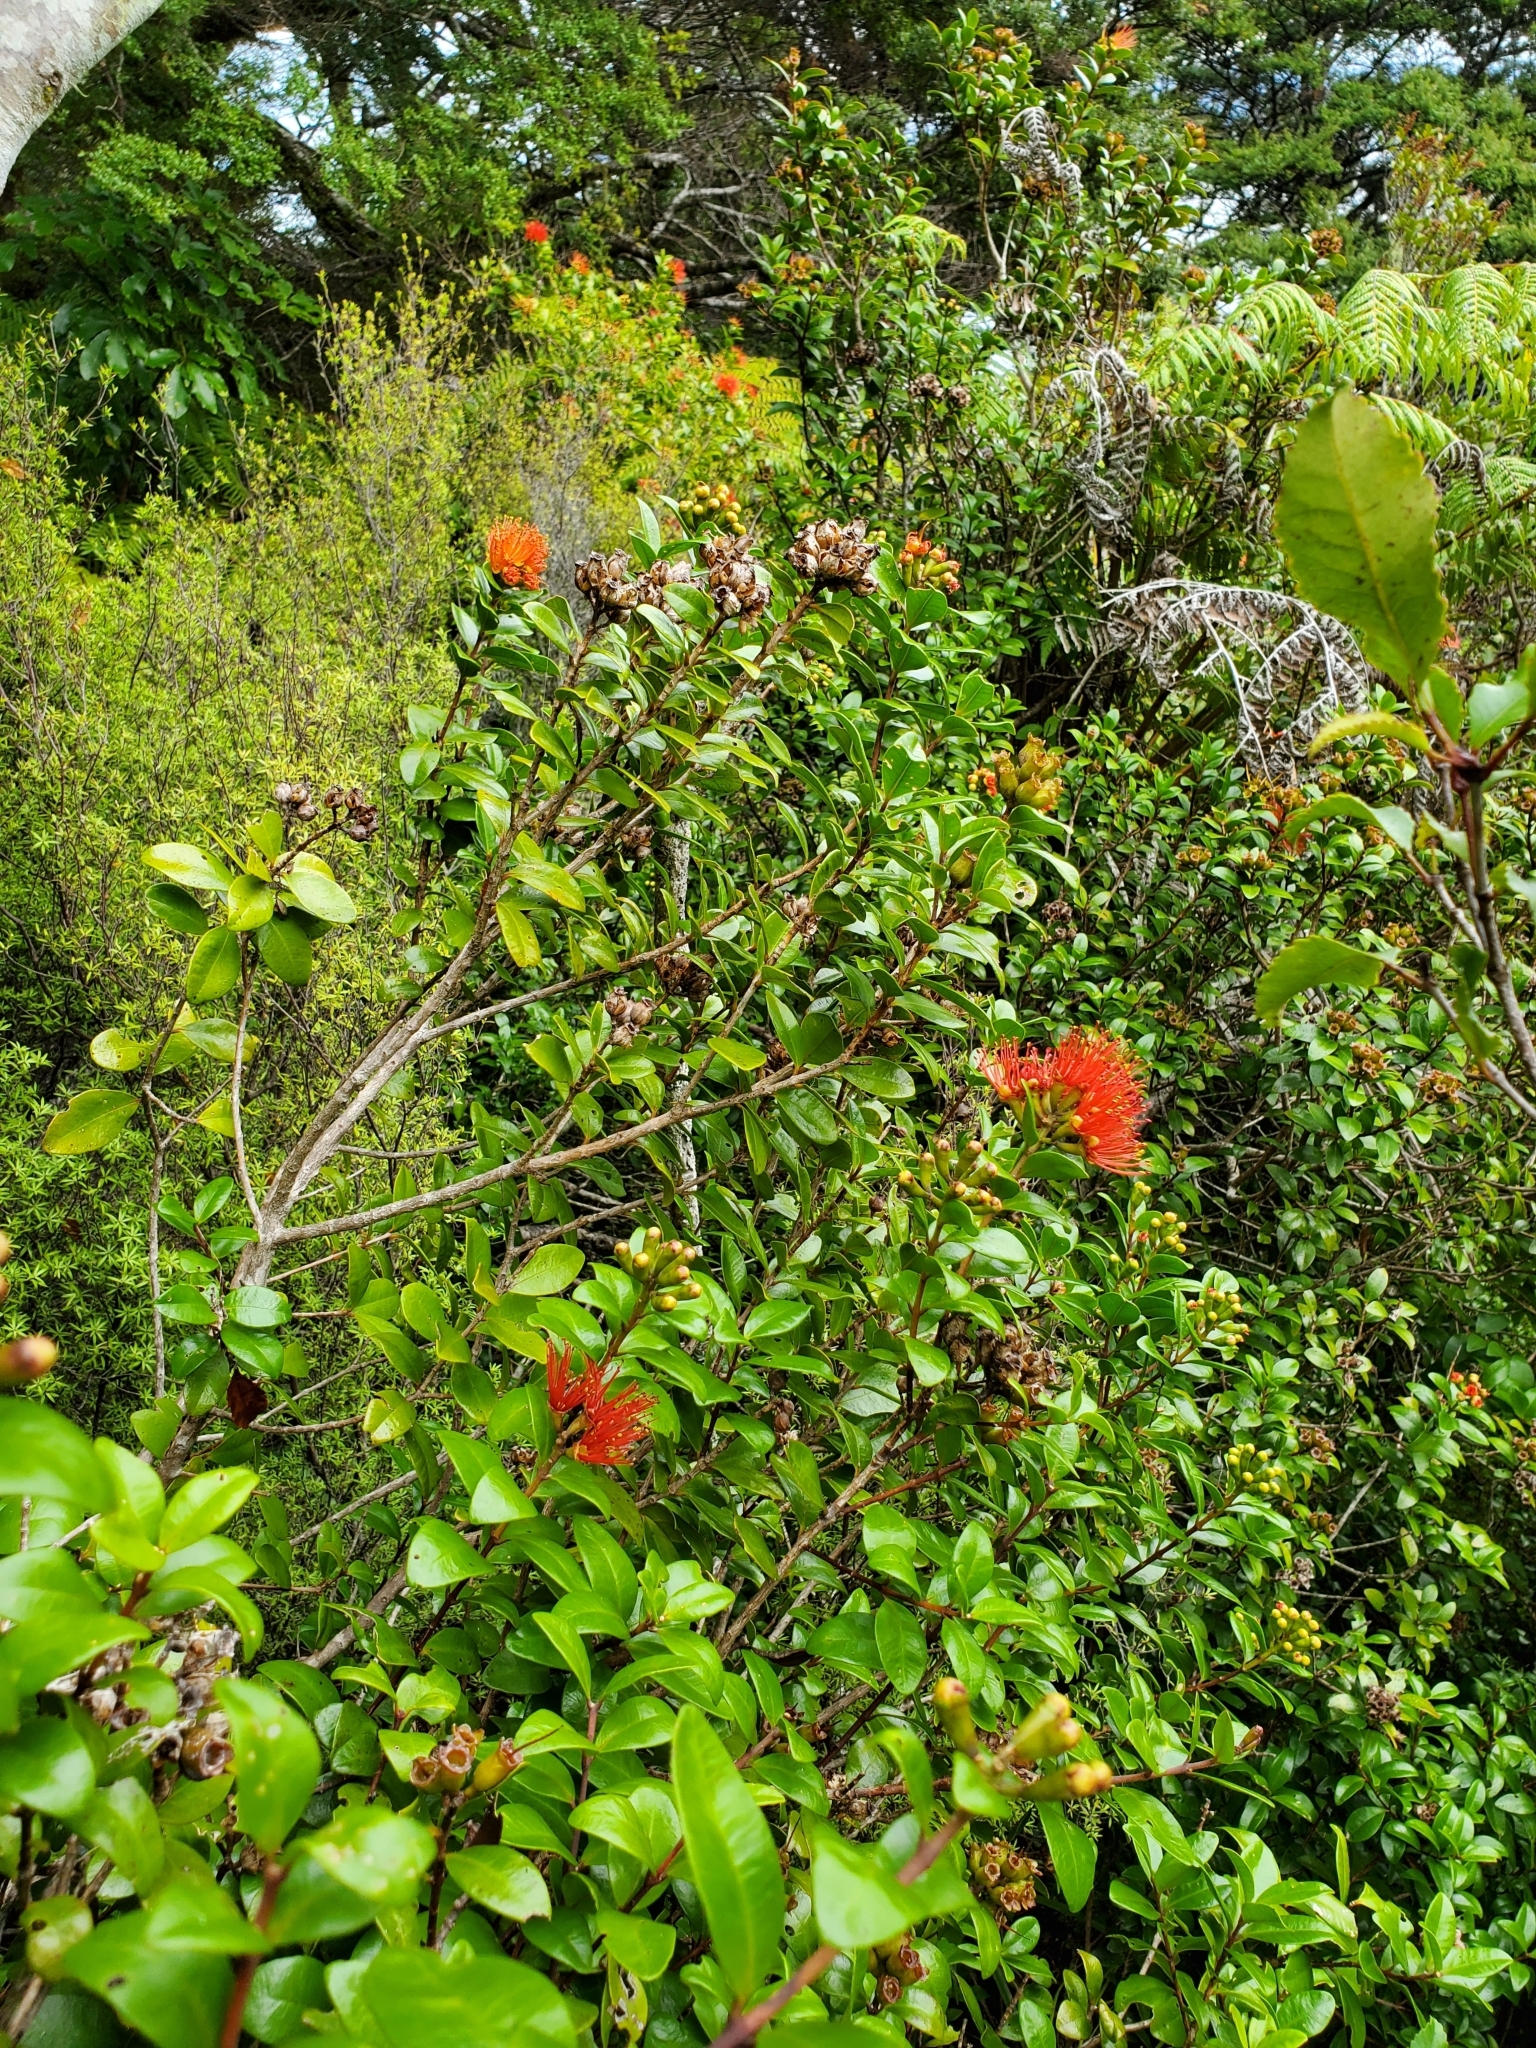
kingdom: Plantae
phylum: Tracheophyta
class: Magnoliopsida
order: Myrtales
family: Myrtaceae
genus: Metrosideros
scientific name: Metrosideros fulgens
